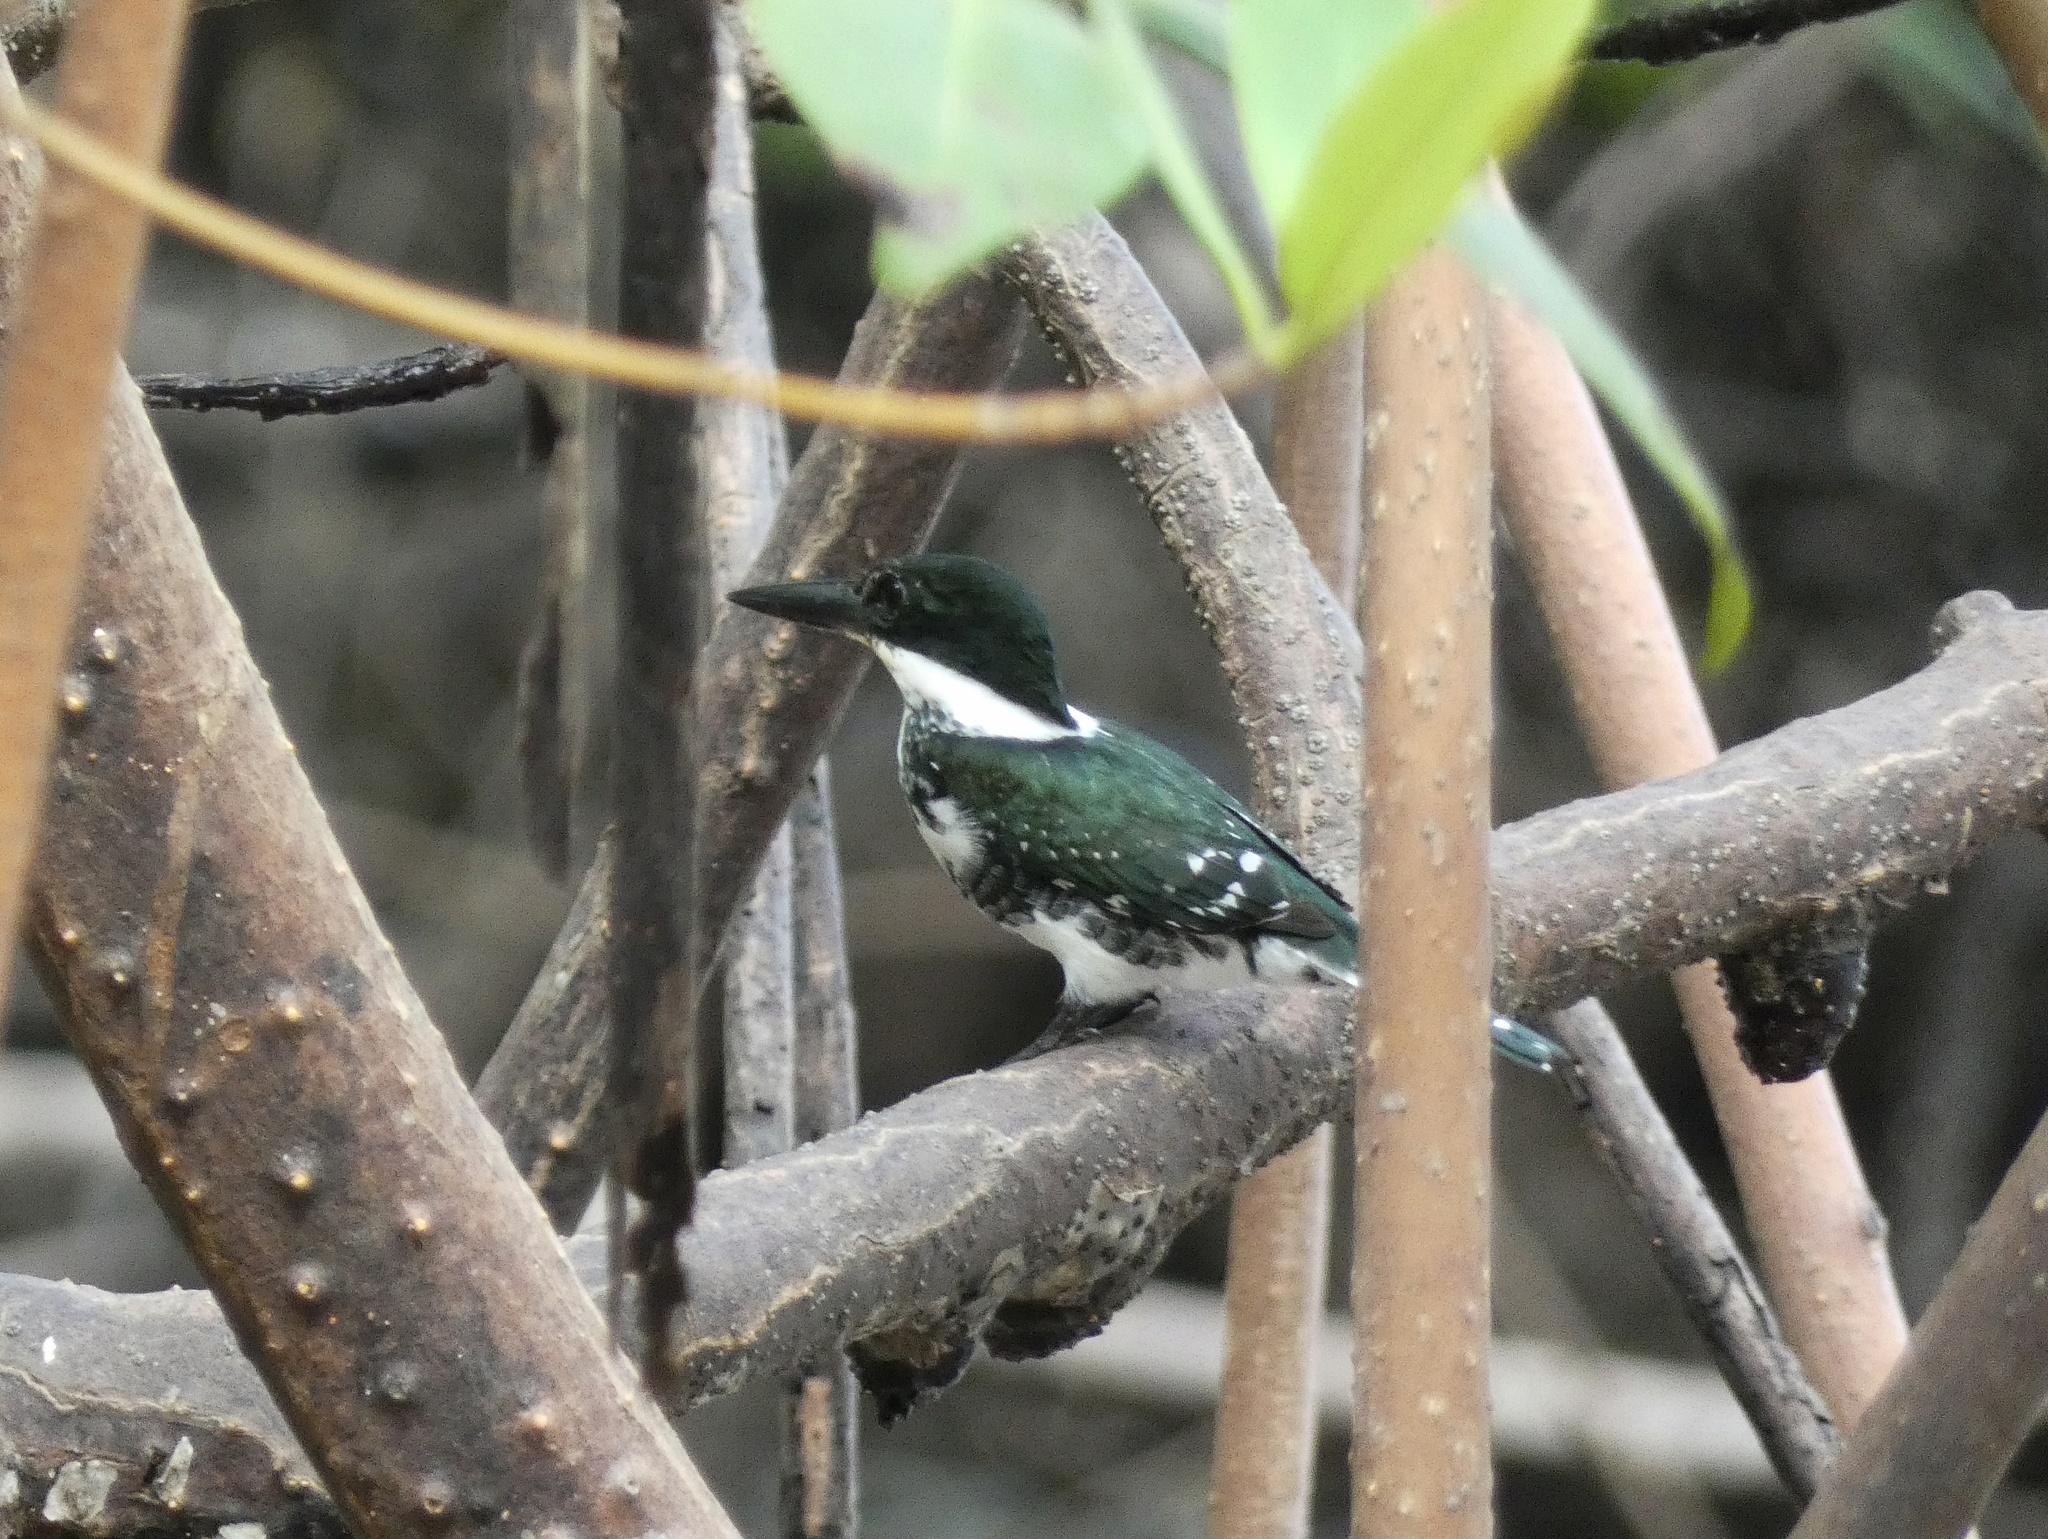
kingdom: Animalia
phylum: Chordata
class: Aves
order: Coraciiformes
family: Alcedinidae
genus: Chloroceryle
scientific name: Chloroceryle americana
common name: Green kingfisher
